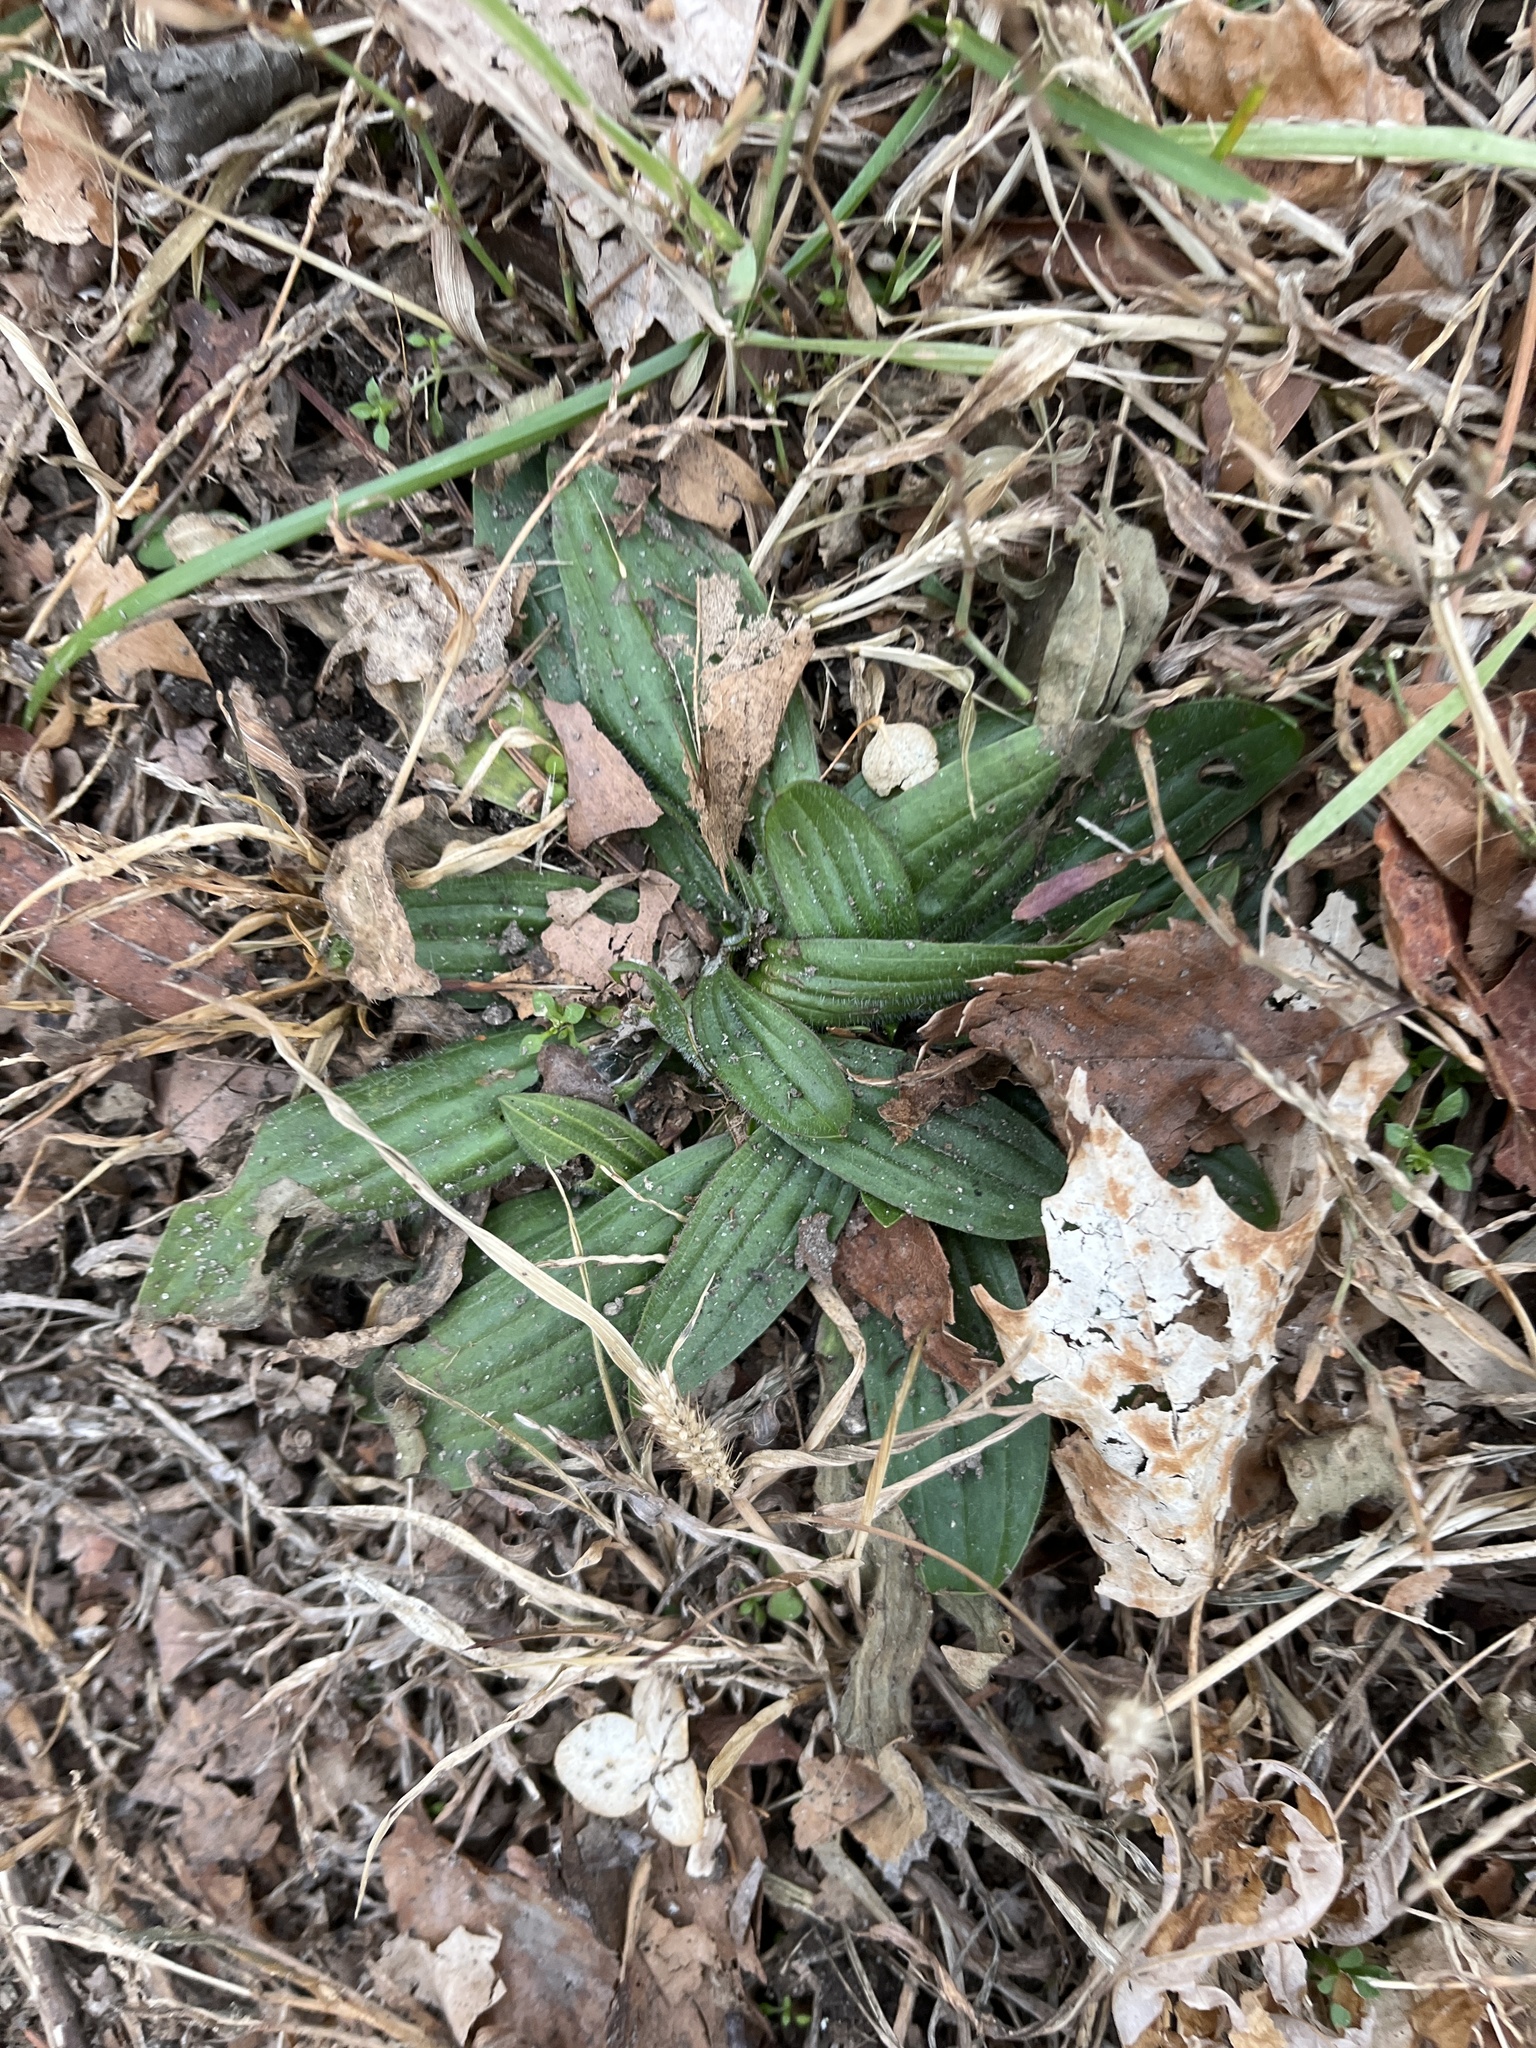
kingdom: Plantae
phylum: Tracheophyta
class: Magnoliopsida
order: Lamiales
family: Plantaginaceae
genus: Plantago
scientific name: Plantago lanceolata
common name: Ribwort plantain
